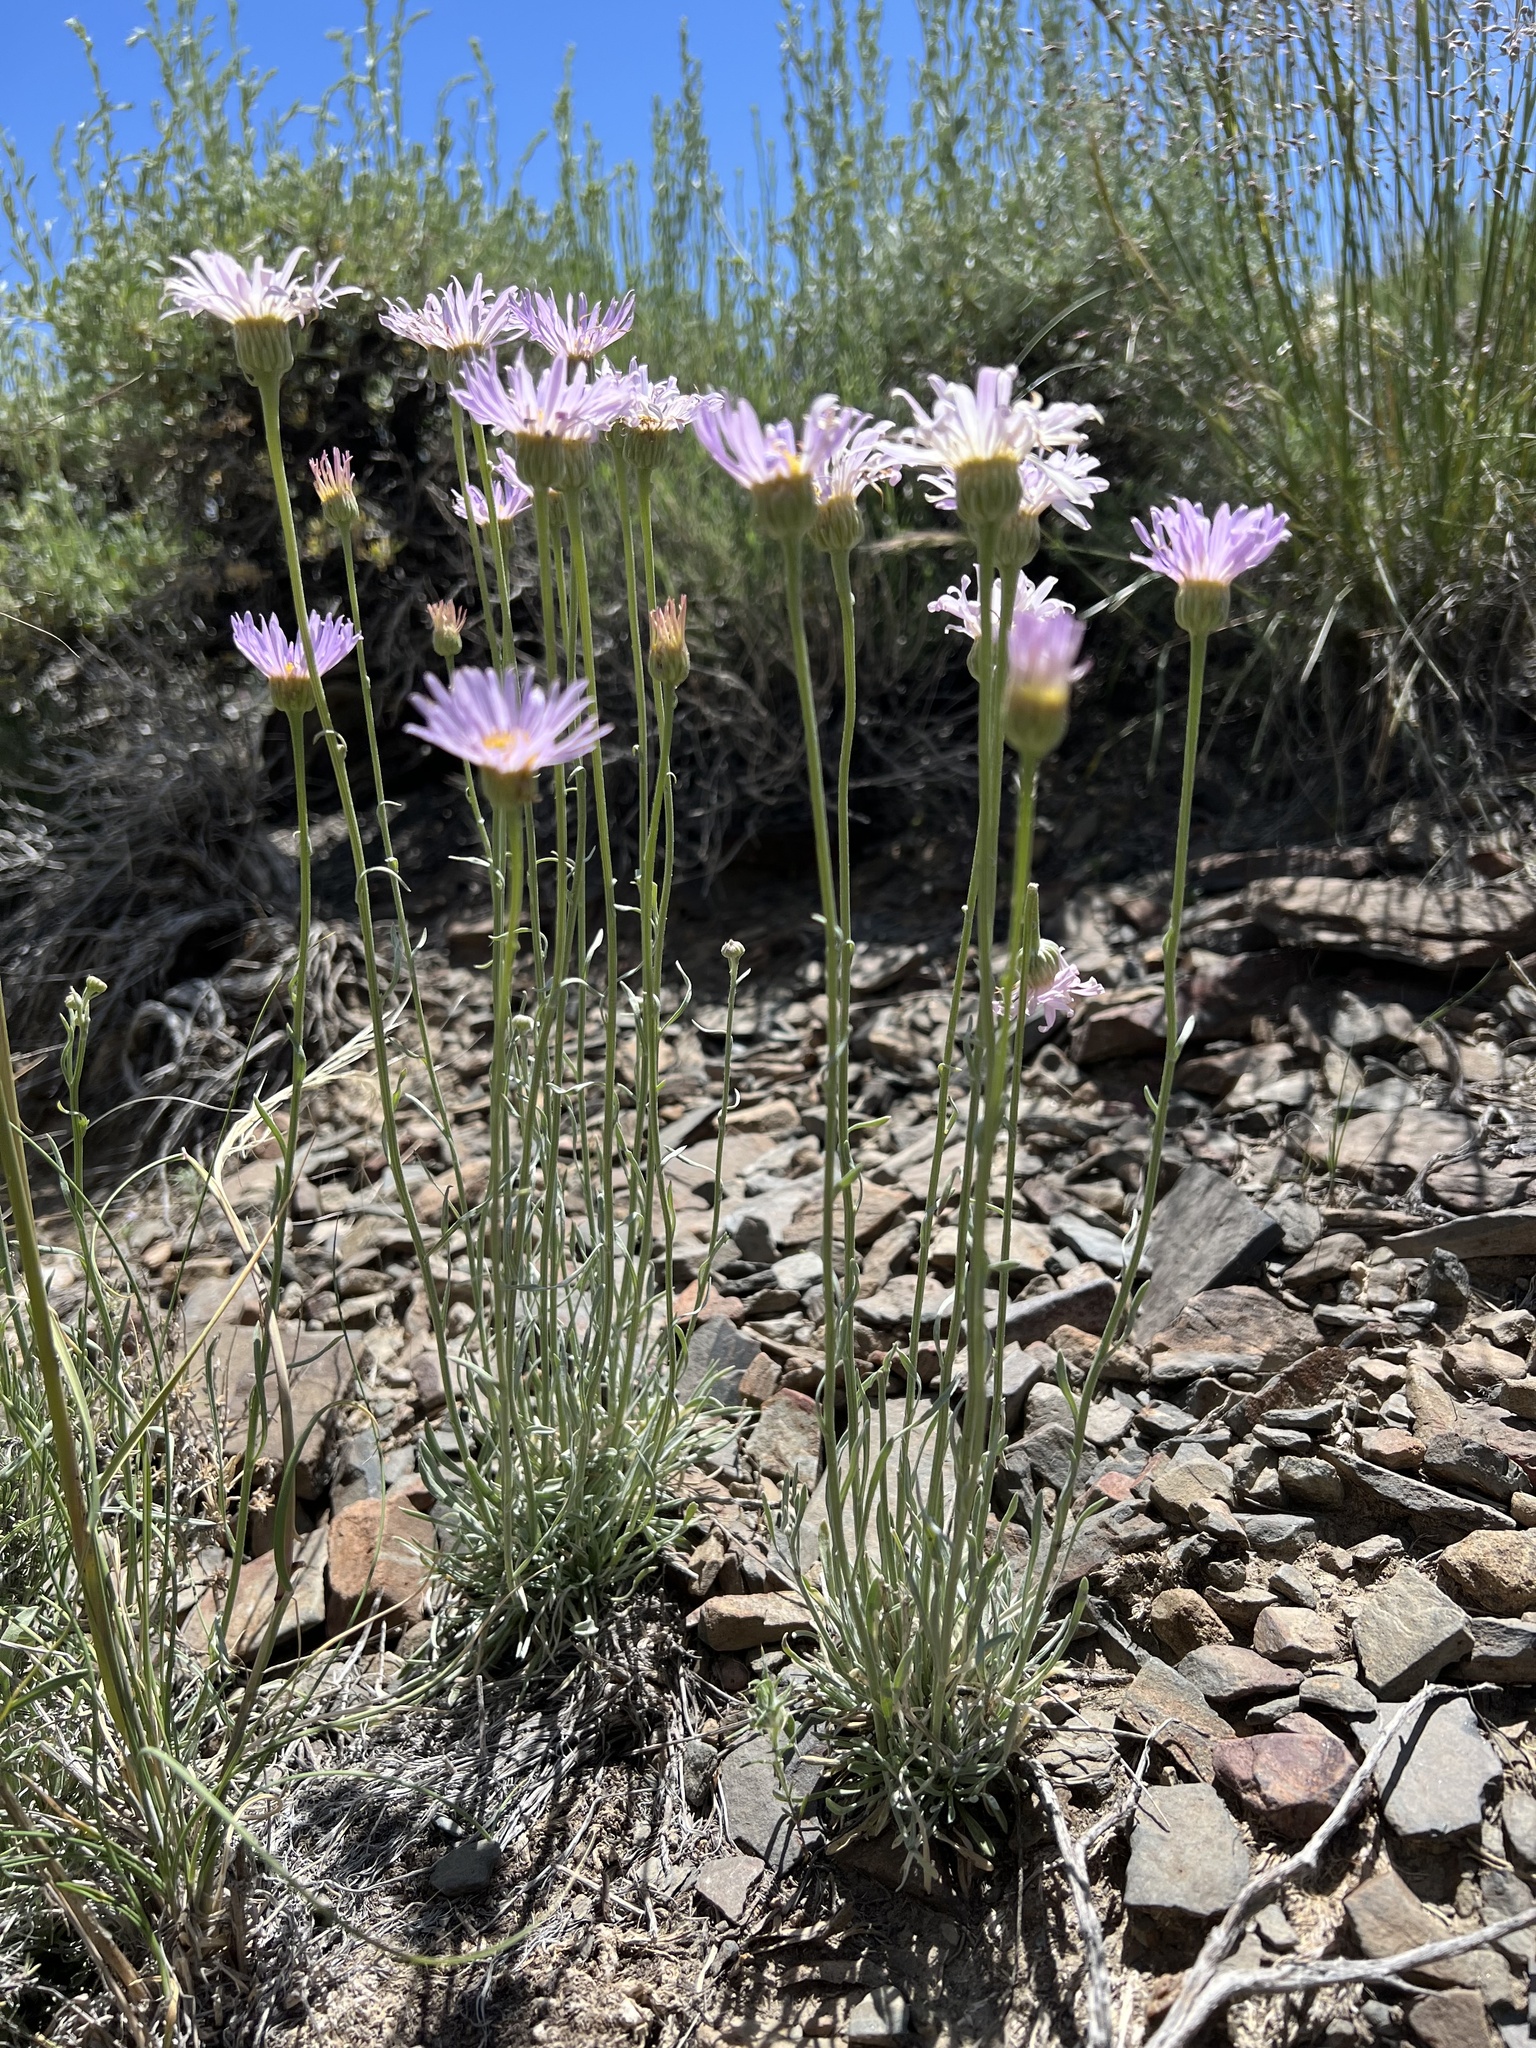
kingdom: Plantae
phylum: Tracheophyta
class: Magnoliopsida
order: Asterales
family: Asteraceae
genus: Erigeron
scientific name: Erigeron argentatus
